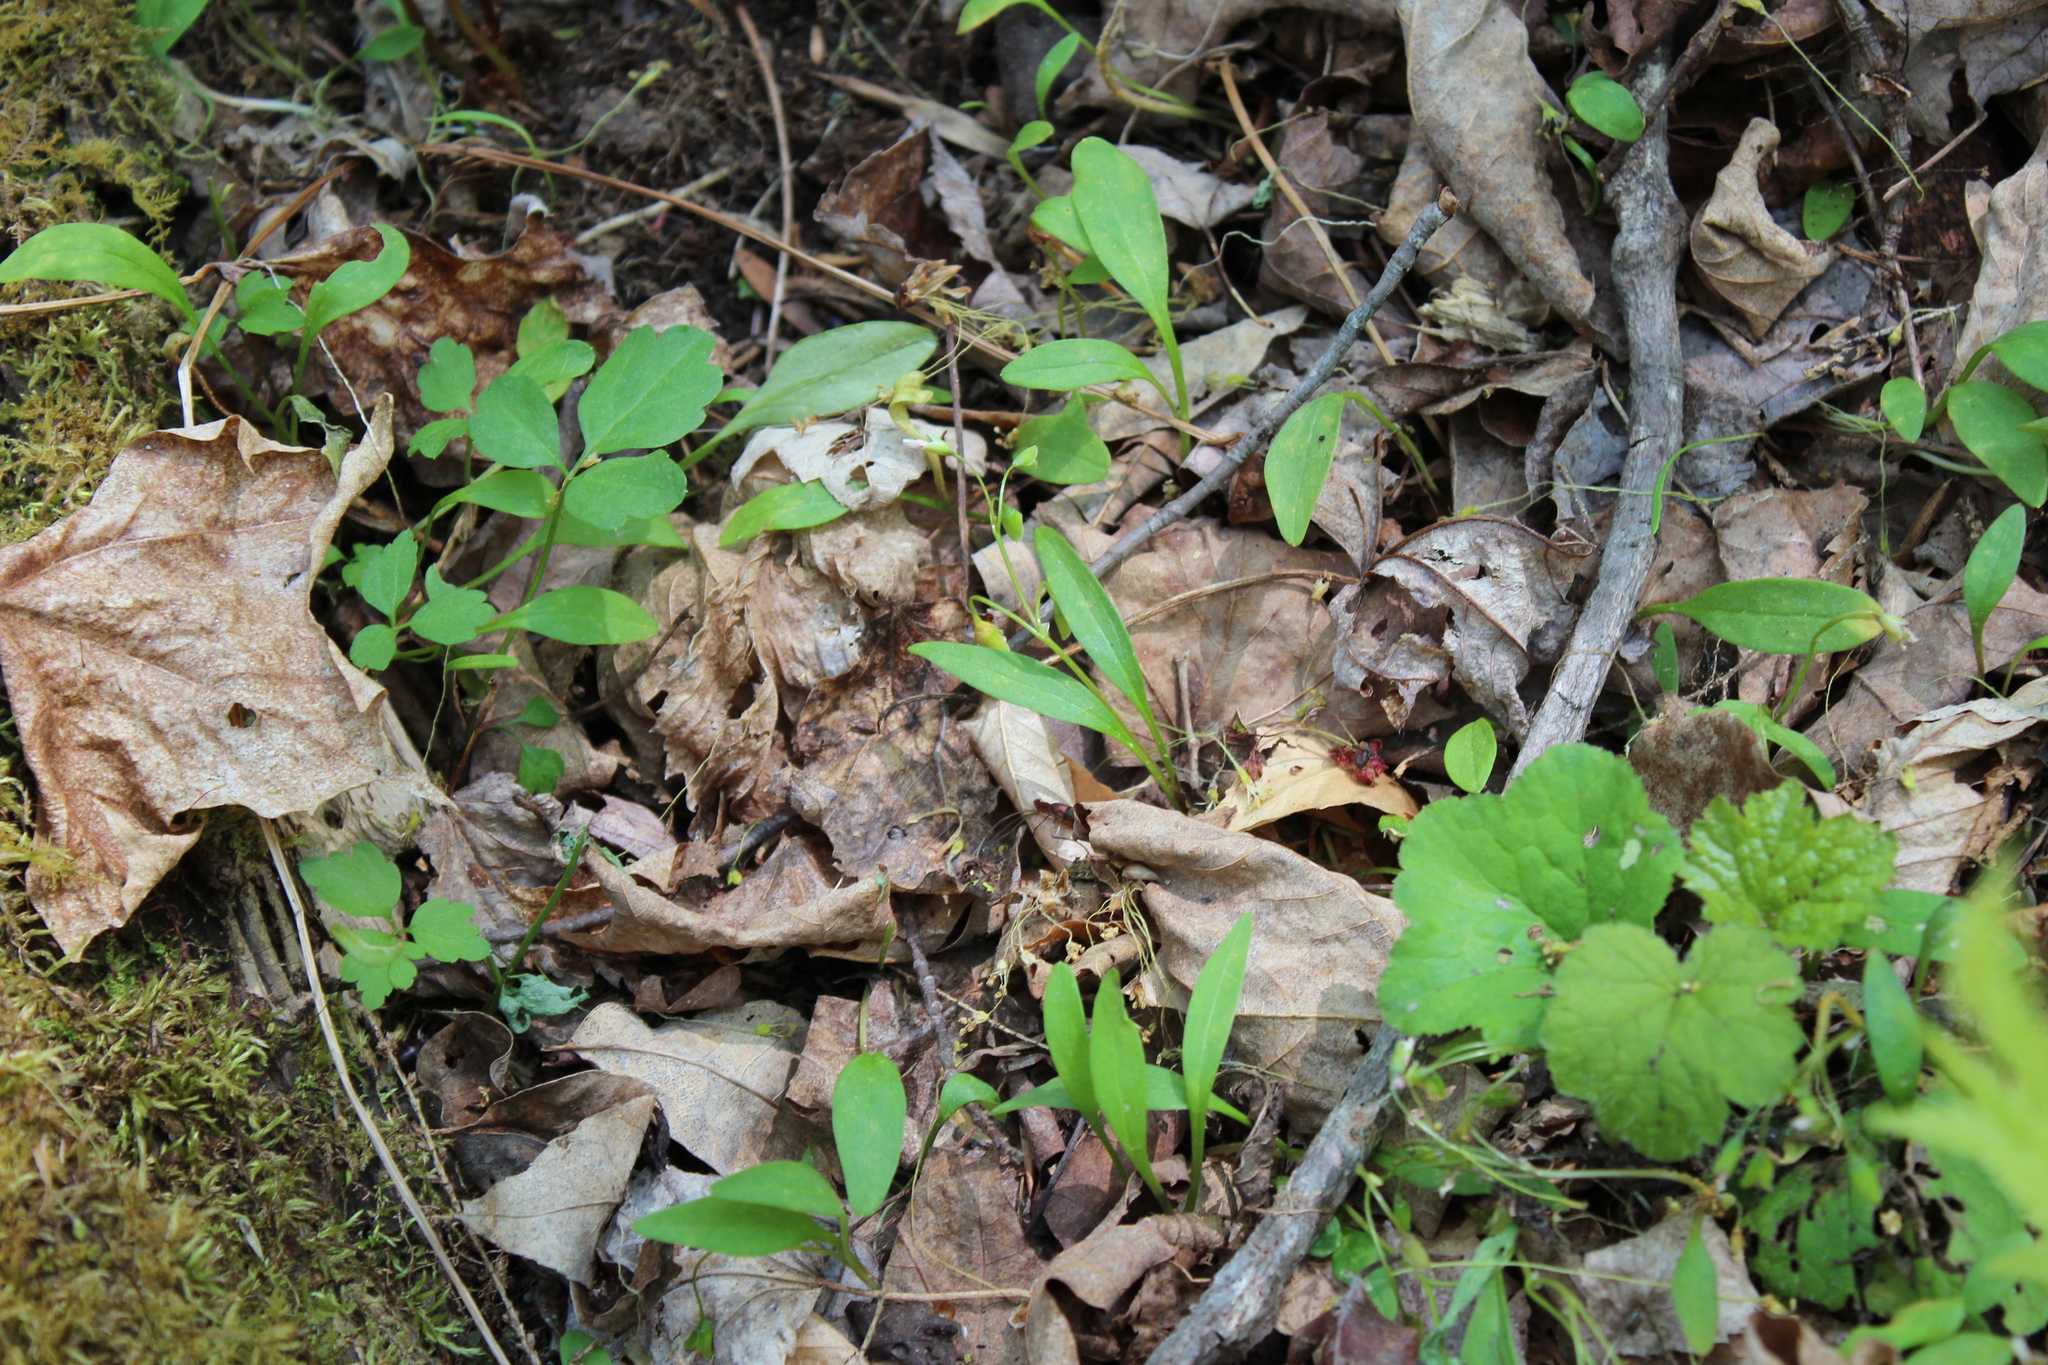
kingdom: Plantae
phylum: Tracheophyta
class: Magnoliopsida
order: Caryophyllales
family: Montiaceae
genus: Claytonia
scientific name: Claytonia caroliniana
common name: Carolina spring beauty
